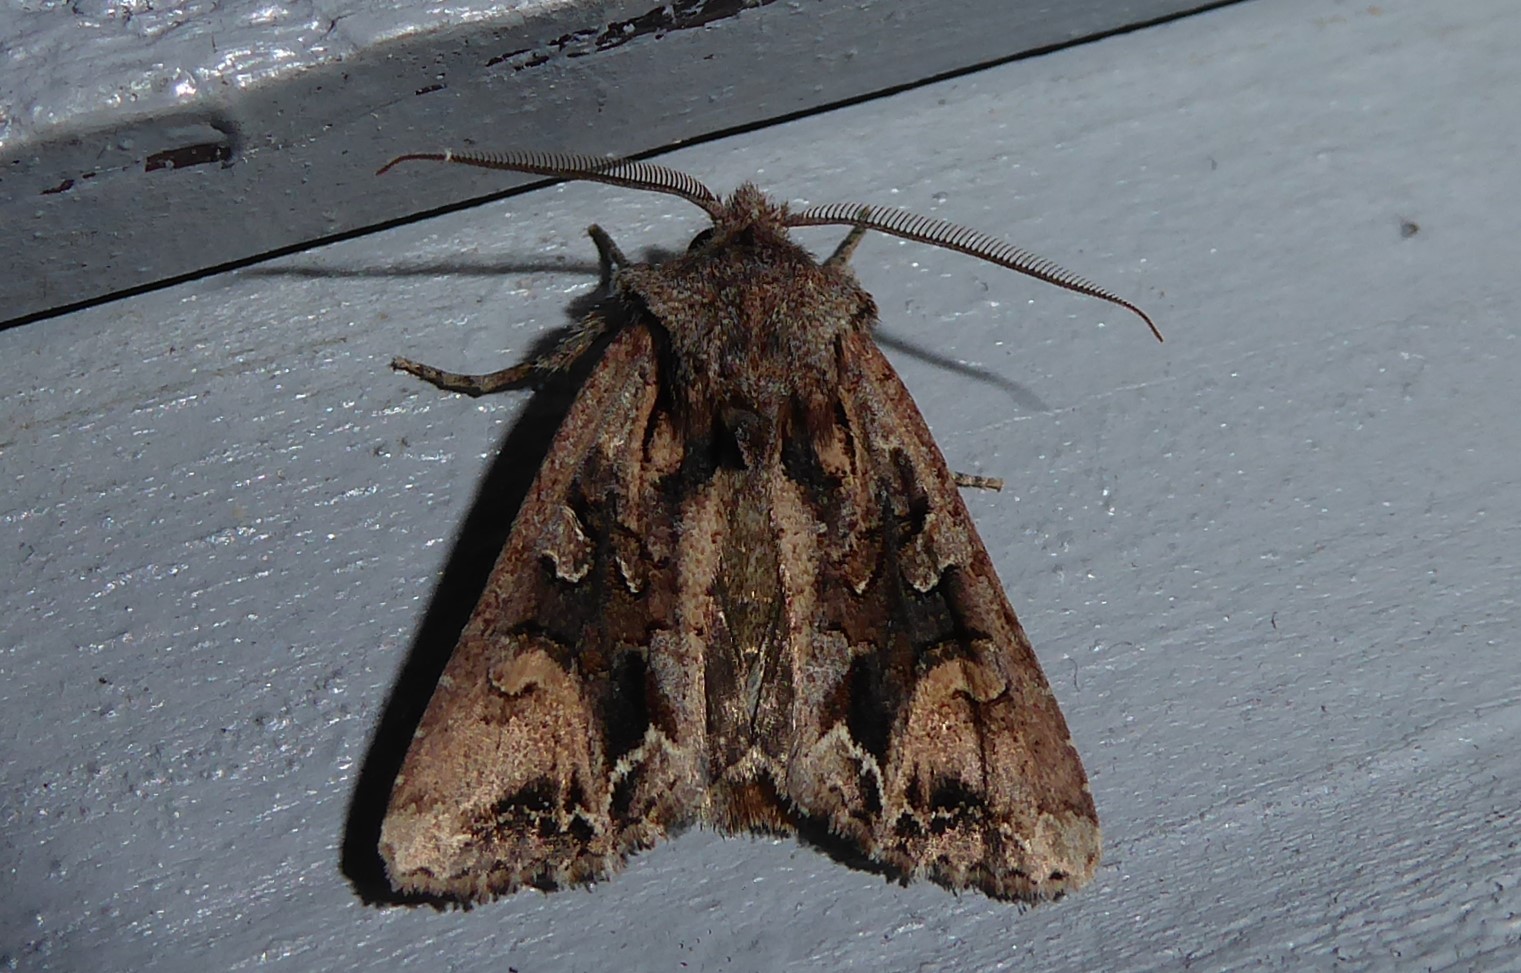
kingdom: Animalia
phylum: Arthropoda
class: Insecta
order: Lepidoptera
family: Noctuidae
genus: Ichneutica
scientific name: Ichneutica
